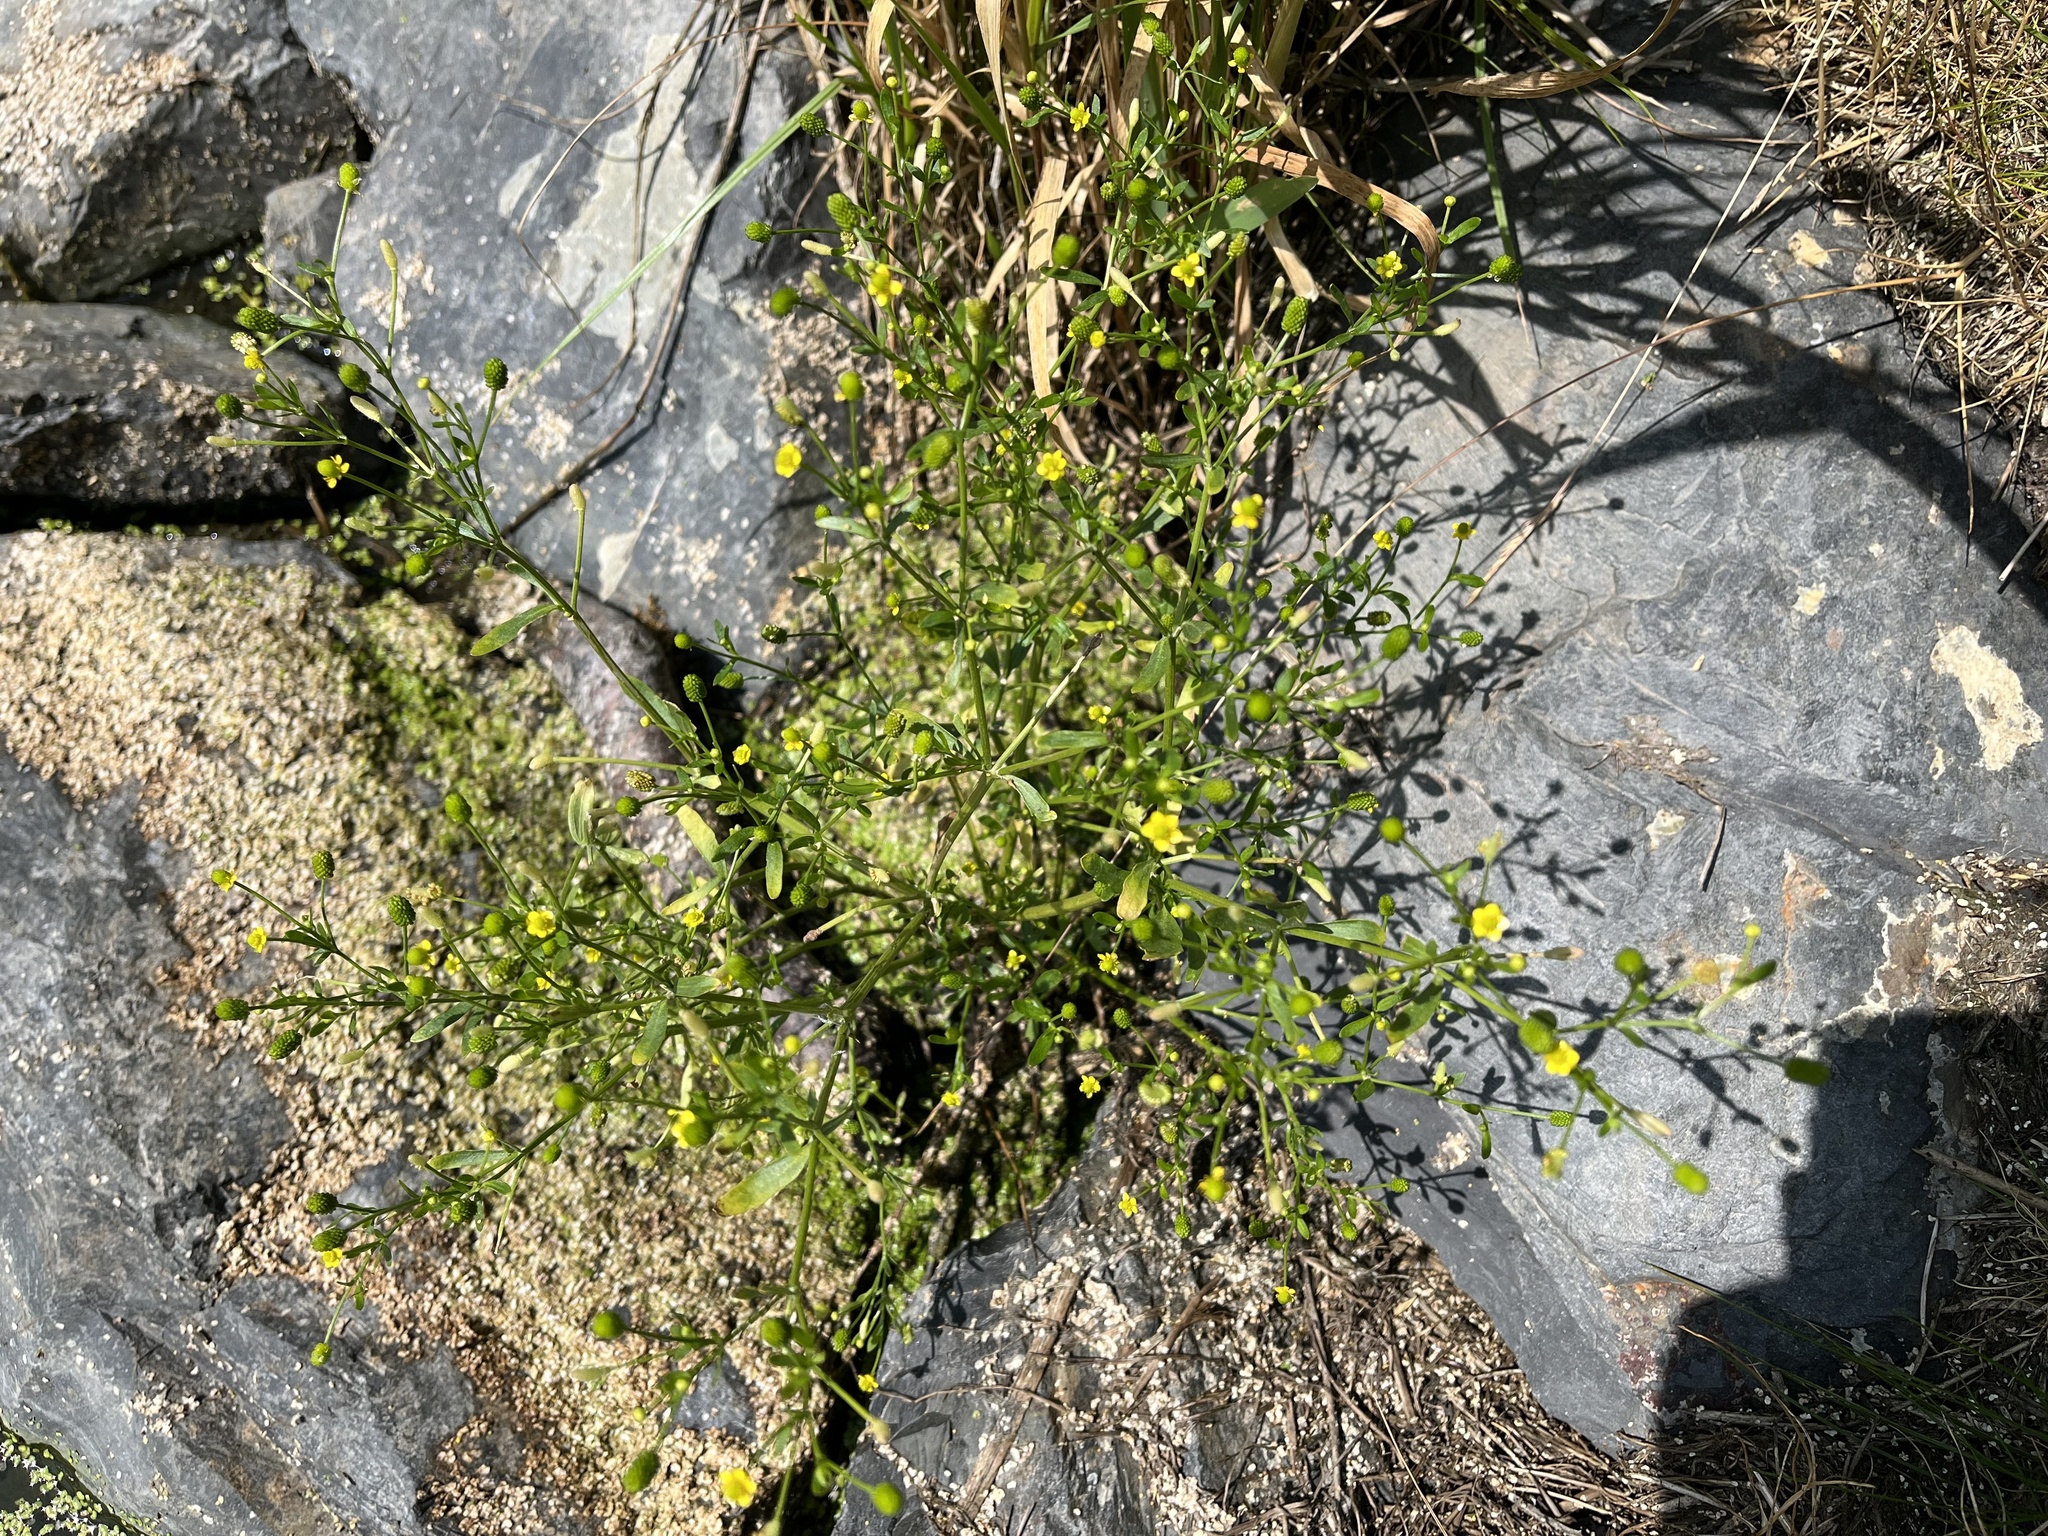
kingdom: Plantae
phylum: Tracheophyta
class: Magnoliopsida
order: Ranunculales
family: Ranunculaceae
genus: Ranunculus
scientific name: Ranunculus sceleratus
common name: Celery-leaved buttercup
